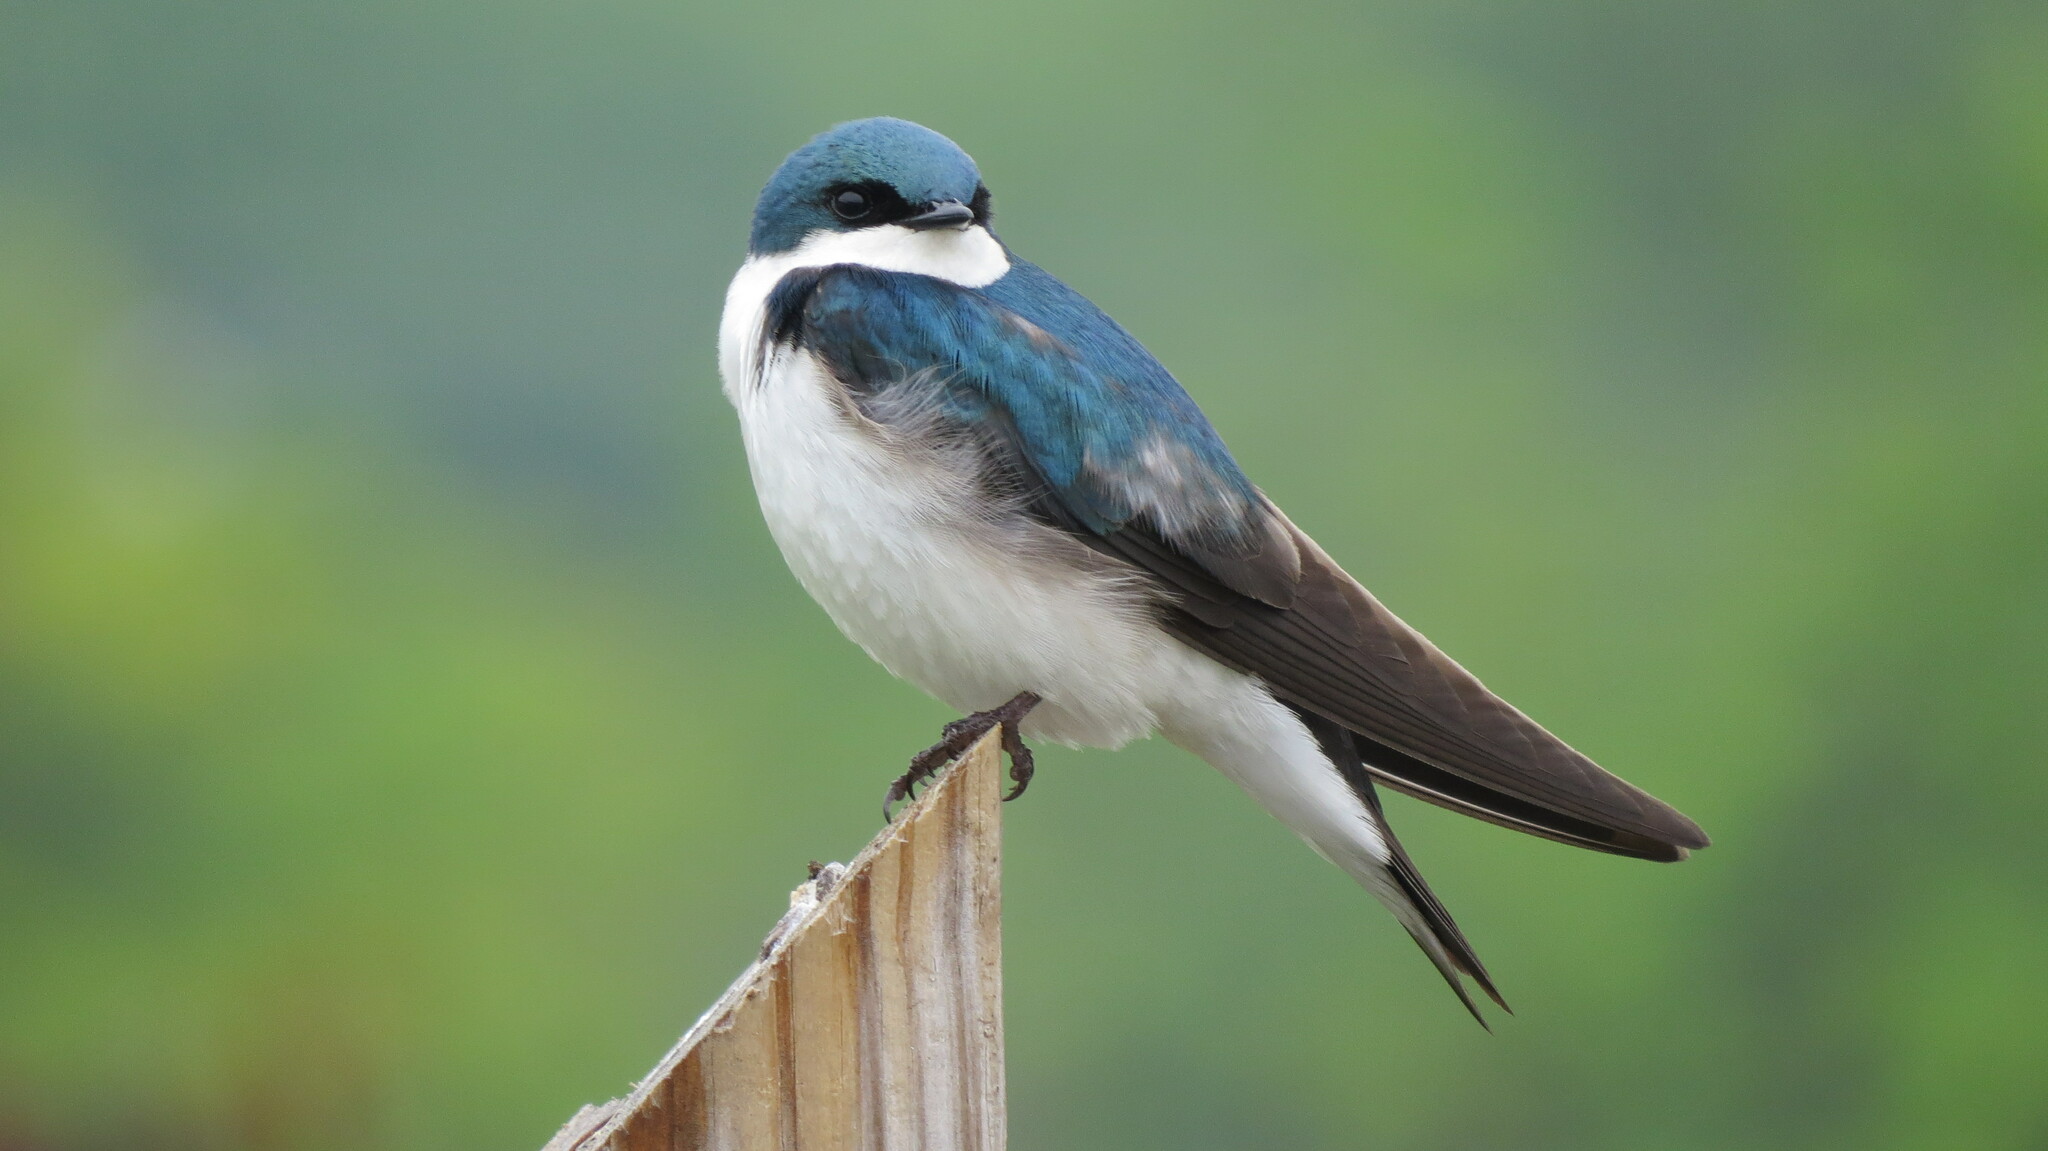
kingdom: Animalia
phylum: Chordata
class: Aves
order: Passeriformes
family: Hirundinidae
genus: Tachycineta
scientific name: Tachycineta bicolor
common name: Tree swallow
